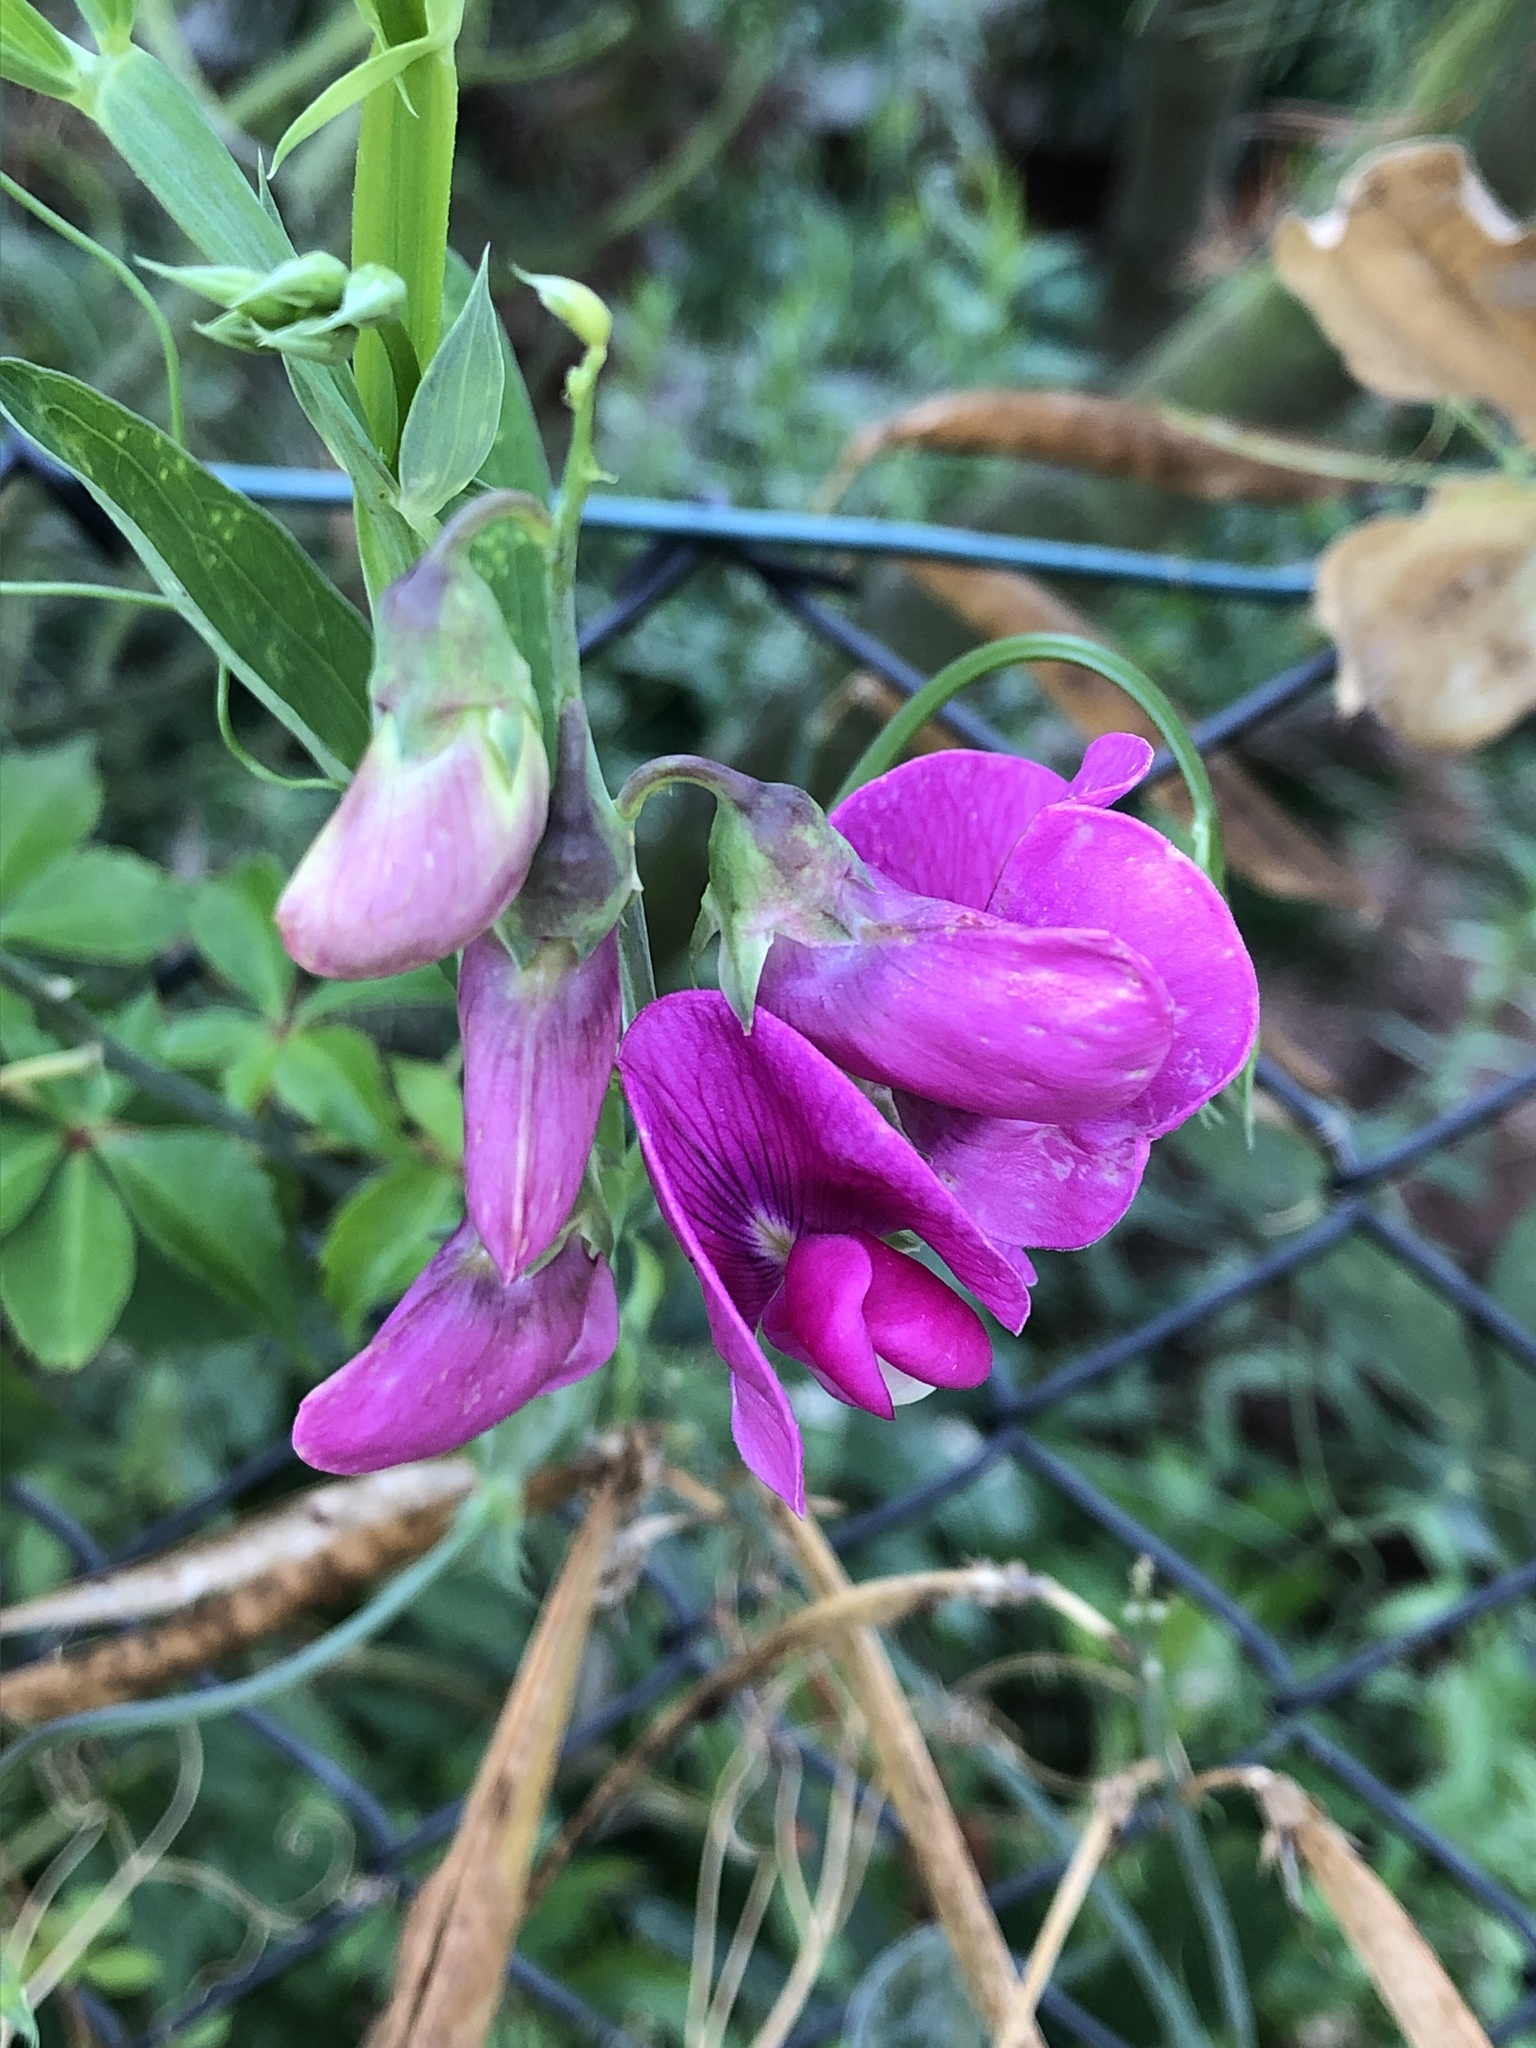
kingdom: Plantae
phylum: Tracheophyta
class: Magnoliopsida
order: Fabales
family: Fabaceae
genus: Lathyrus
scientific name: Lathyrus latifolius
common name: Perennial pea
